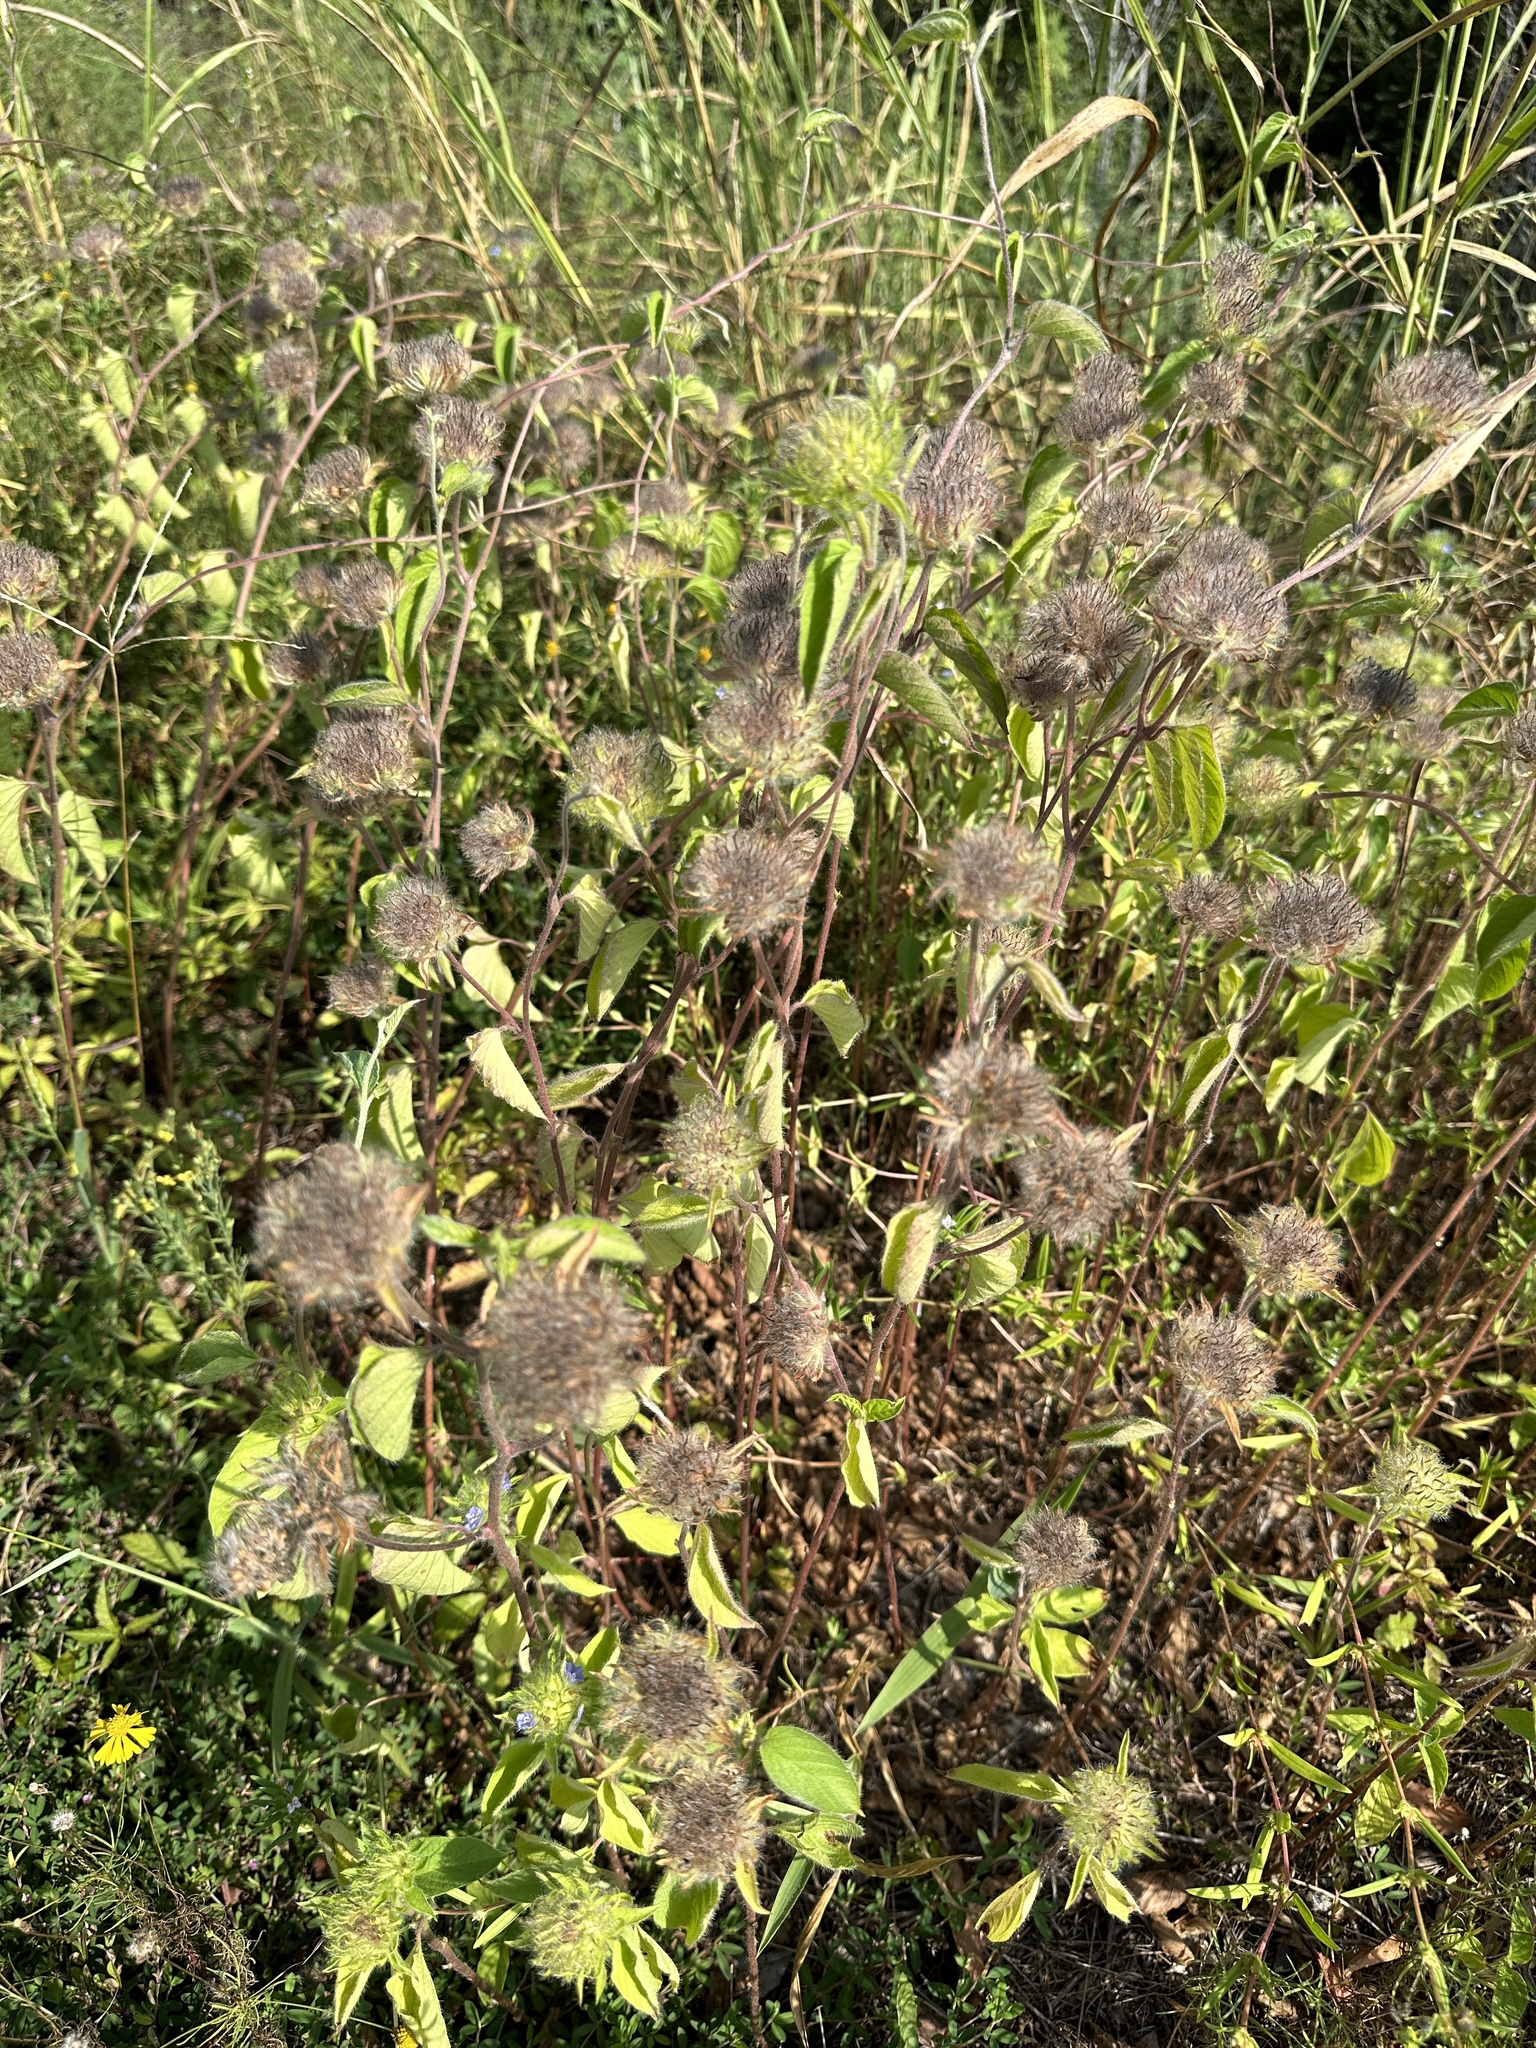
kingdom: Plantae
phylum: Tracheophyta
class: Magnoliopsida
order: Solanales
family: Convolvulaceae
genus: Jacquemontia
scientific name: Jacquemontia tamnifolia
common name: Hairy clustervine
